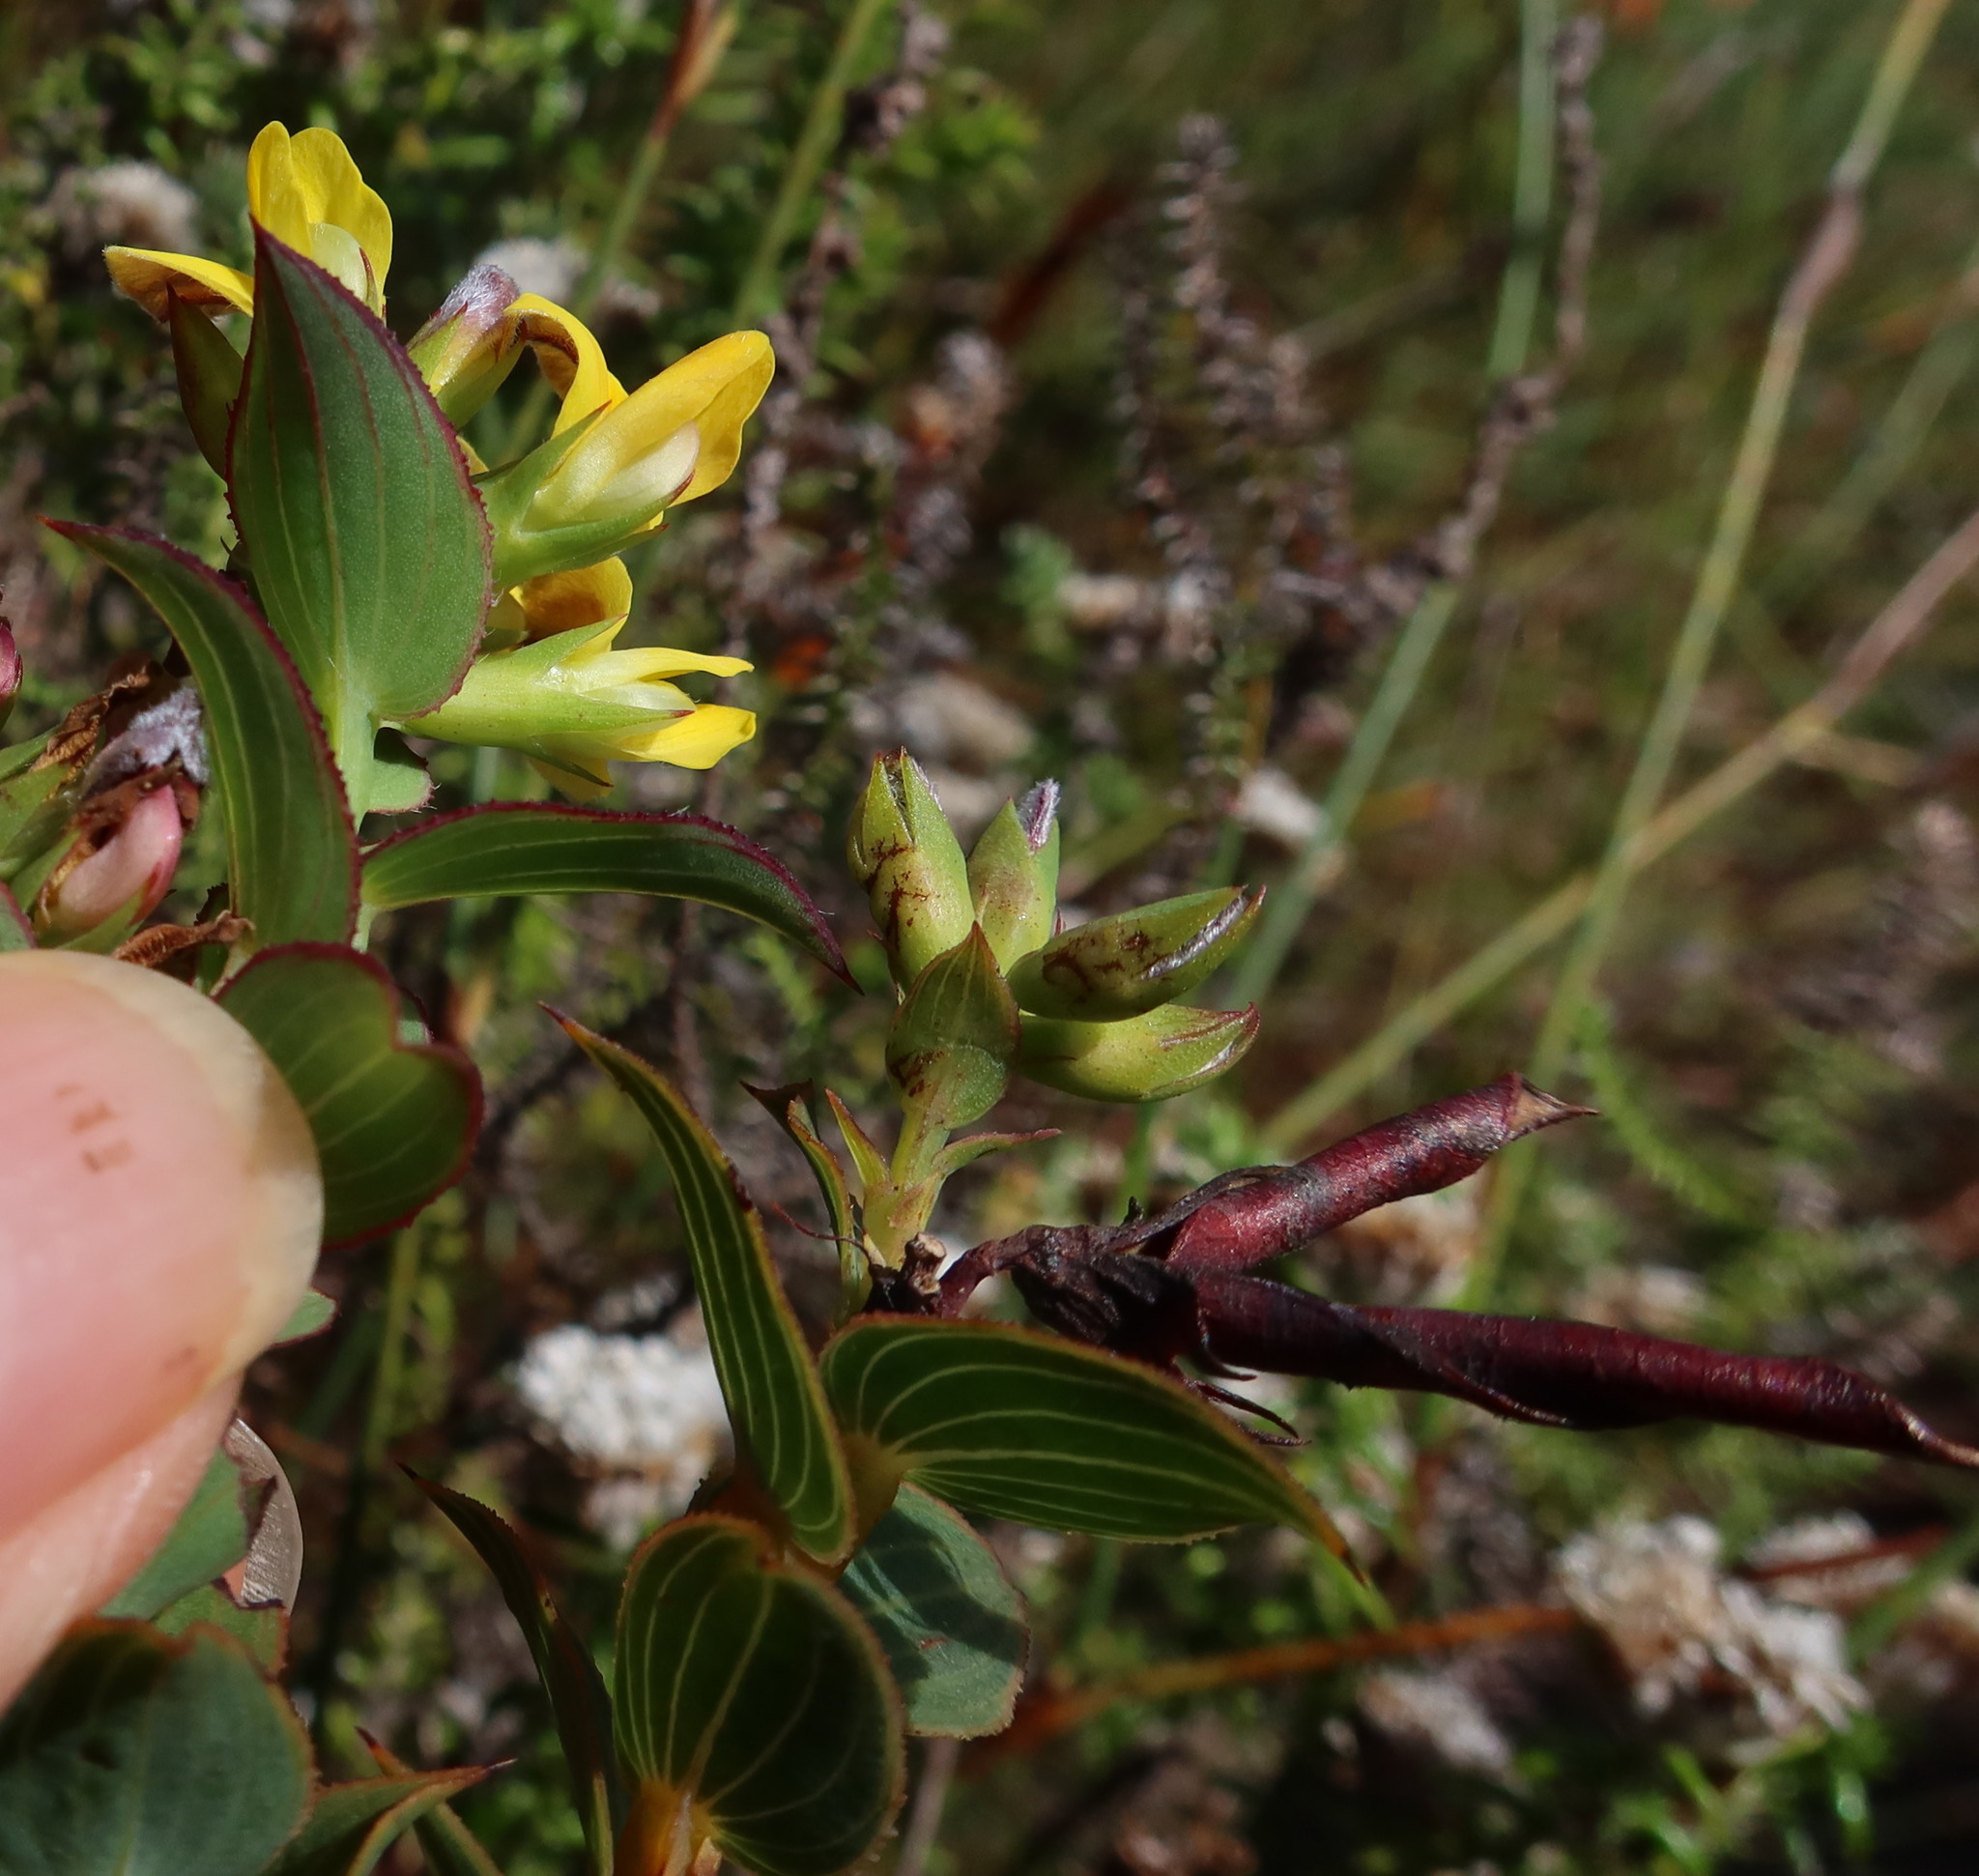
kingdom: Plantae
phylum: Tracheophyta
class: Magnoliopsida
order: Fabales
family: Fabaceae
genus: Aspalathus
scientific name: Aspalathus crenata
